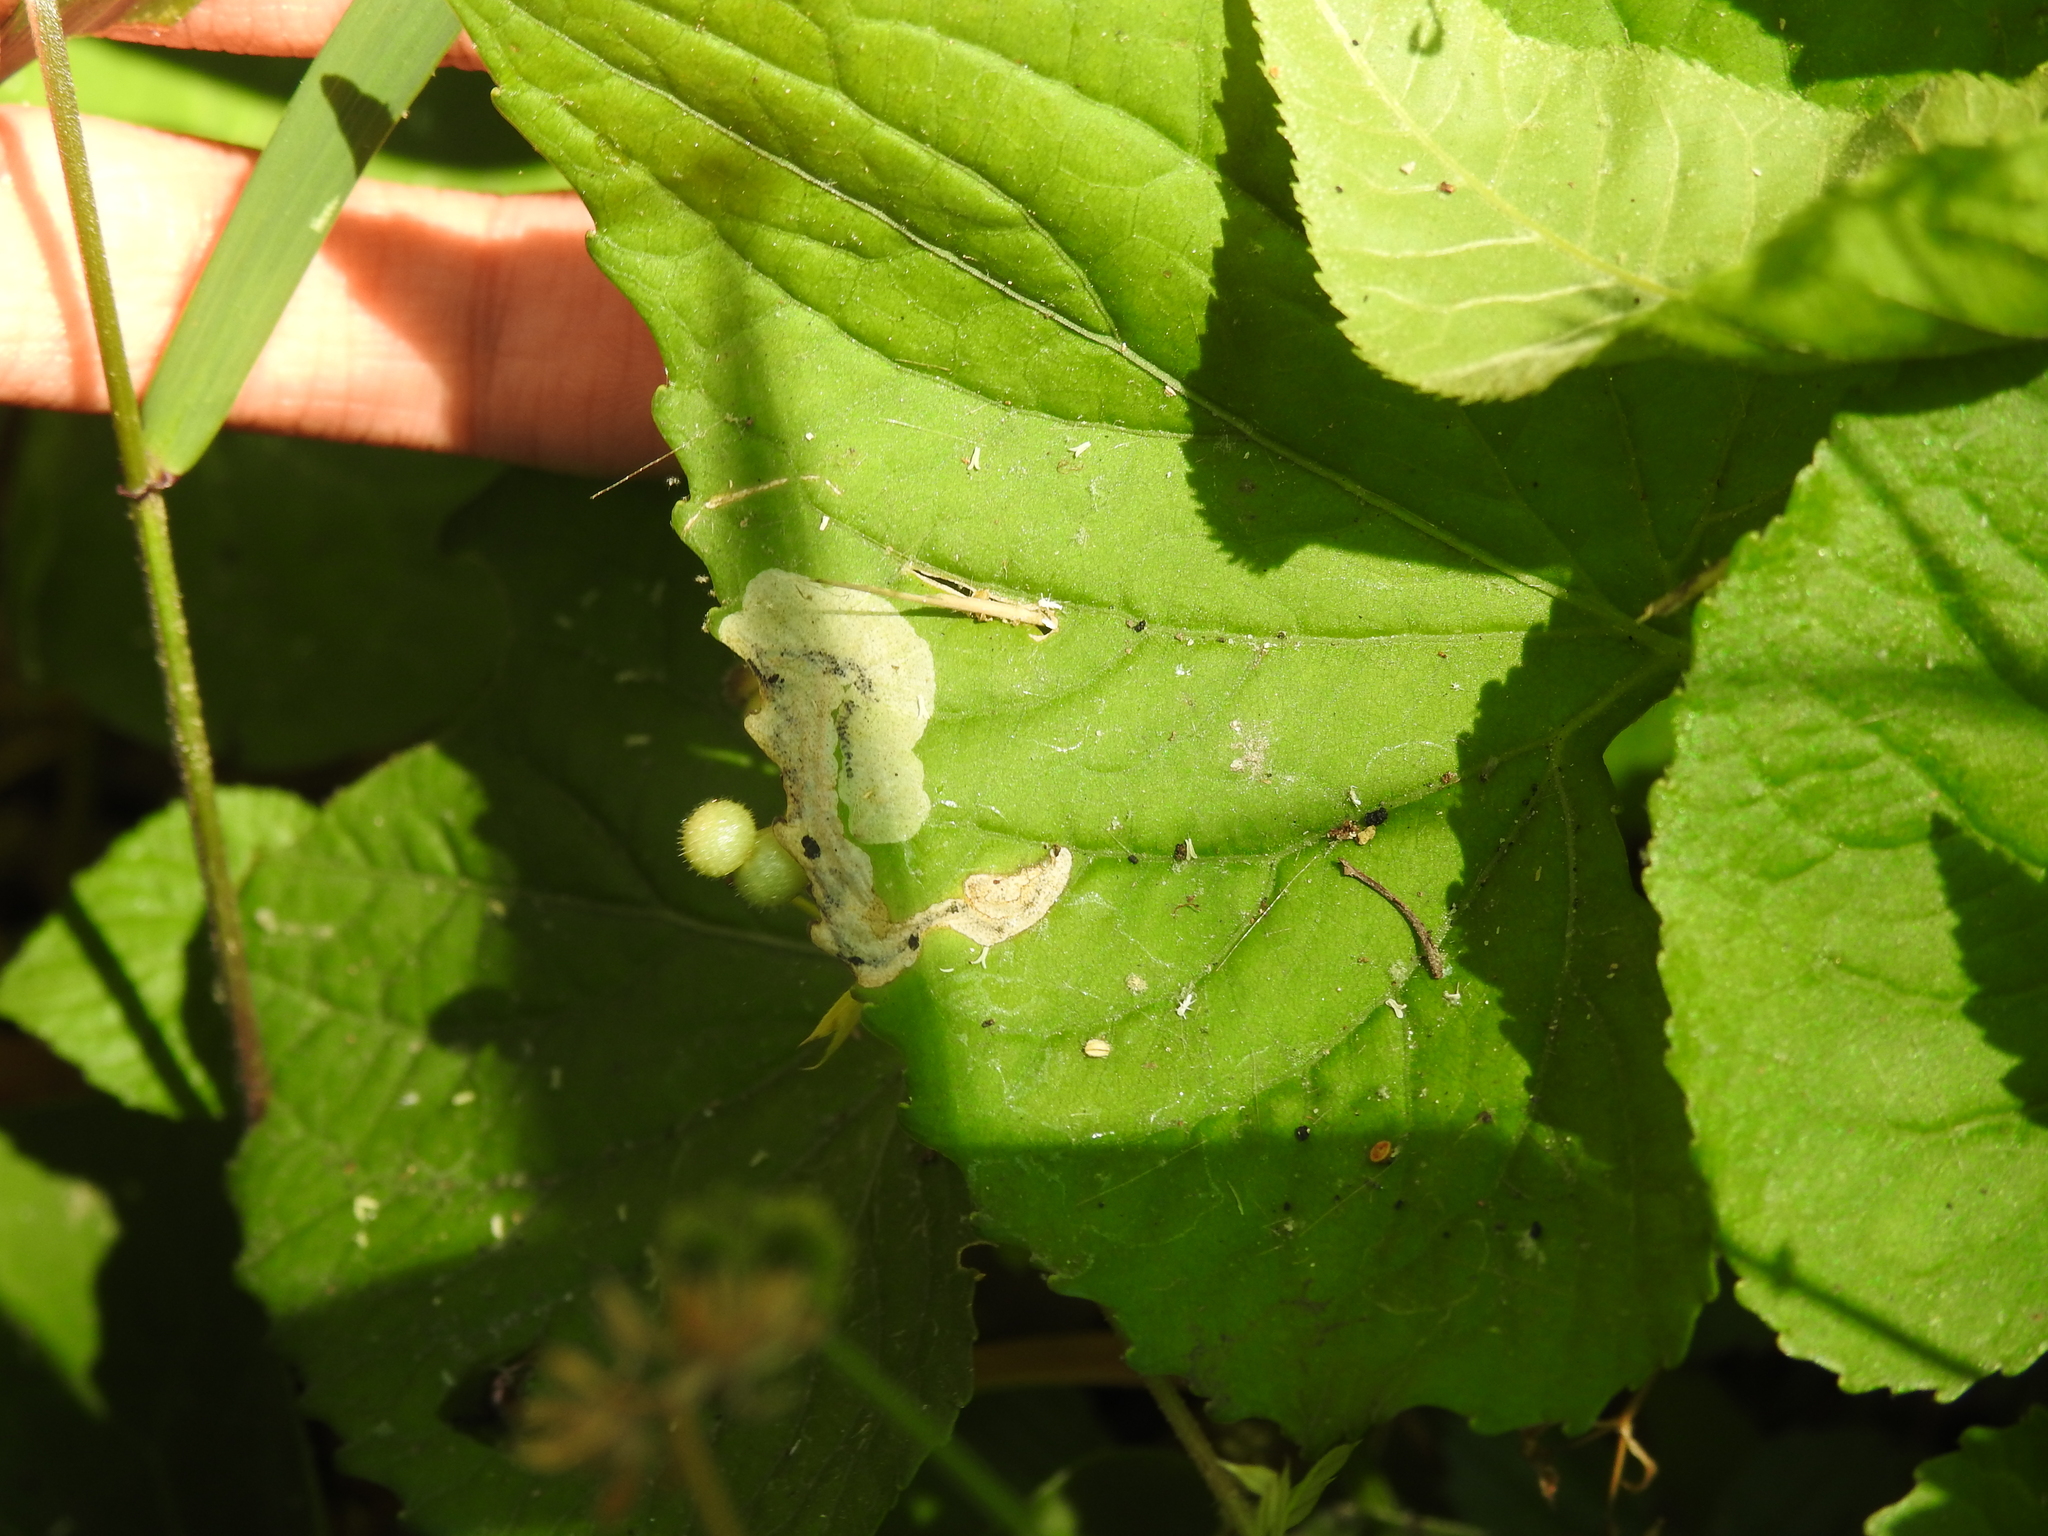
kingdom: Animalia
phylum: Arthropoda
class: Insecta
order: Hymenoptera
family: Tenthredinidae
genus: Nefusa
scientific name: Nefusa ambigua
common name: Violet leafmining sawfly
